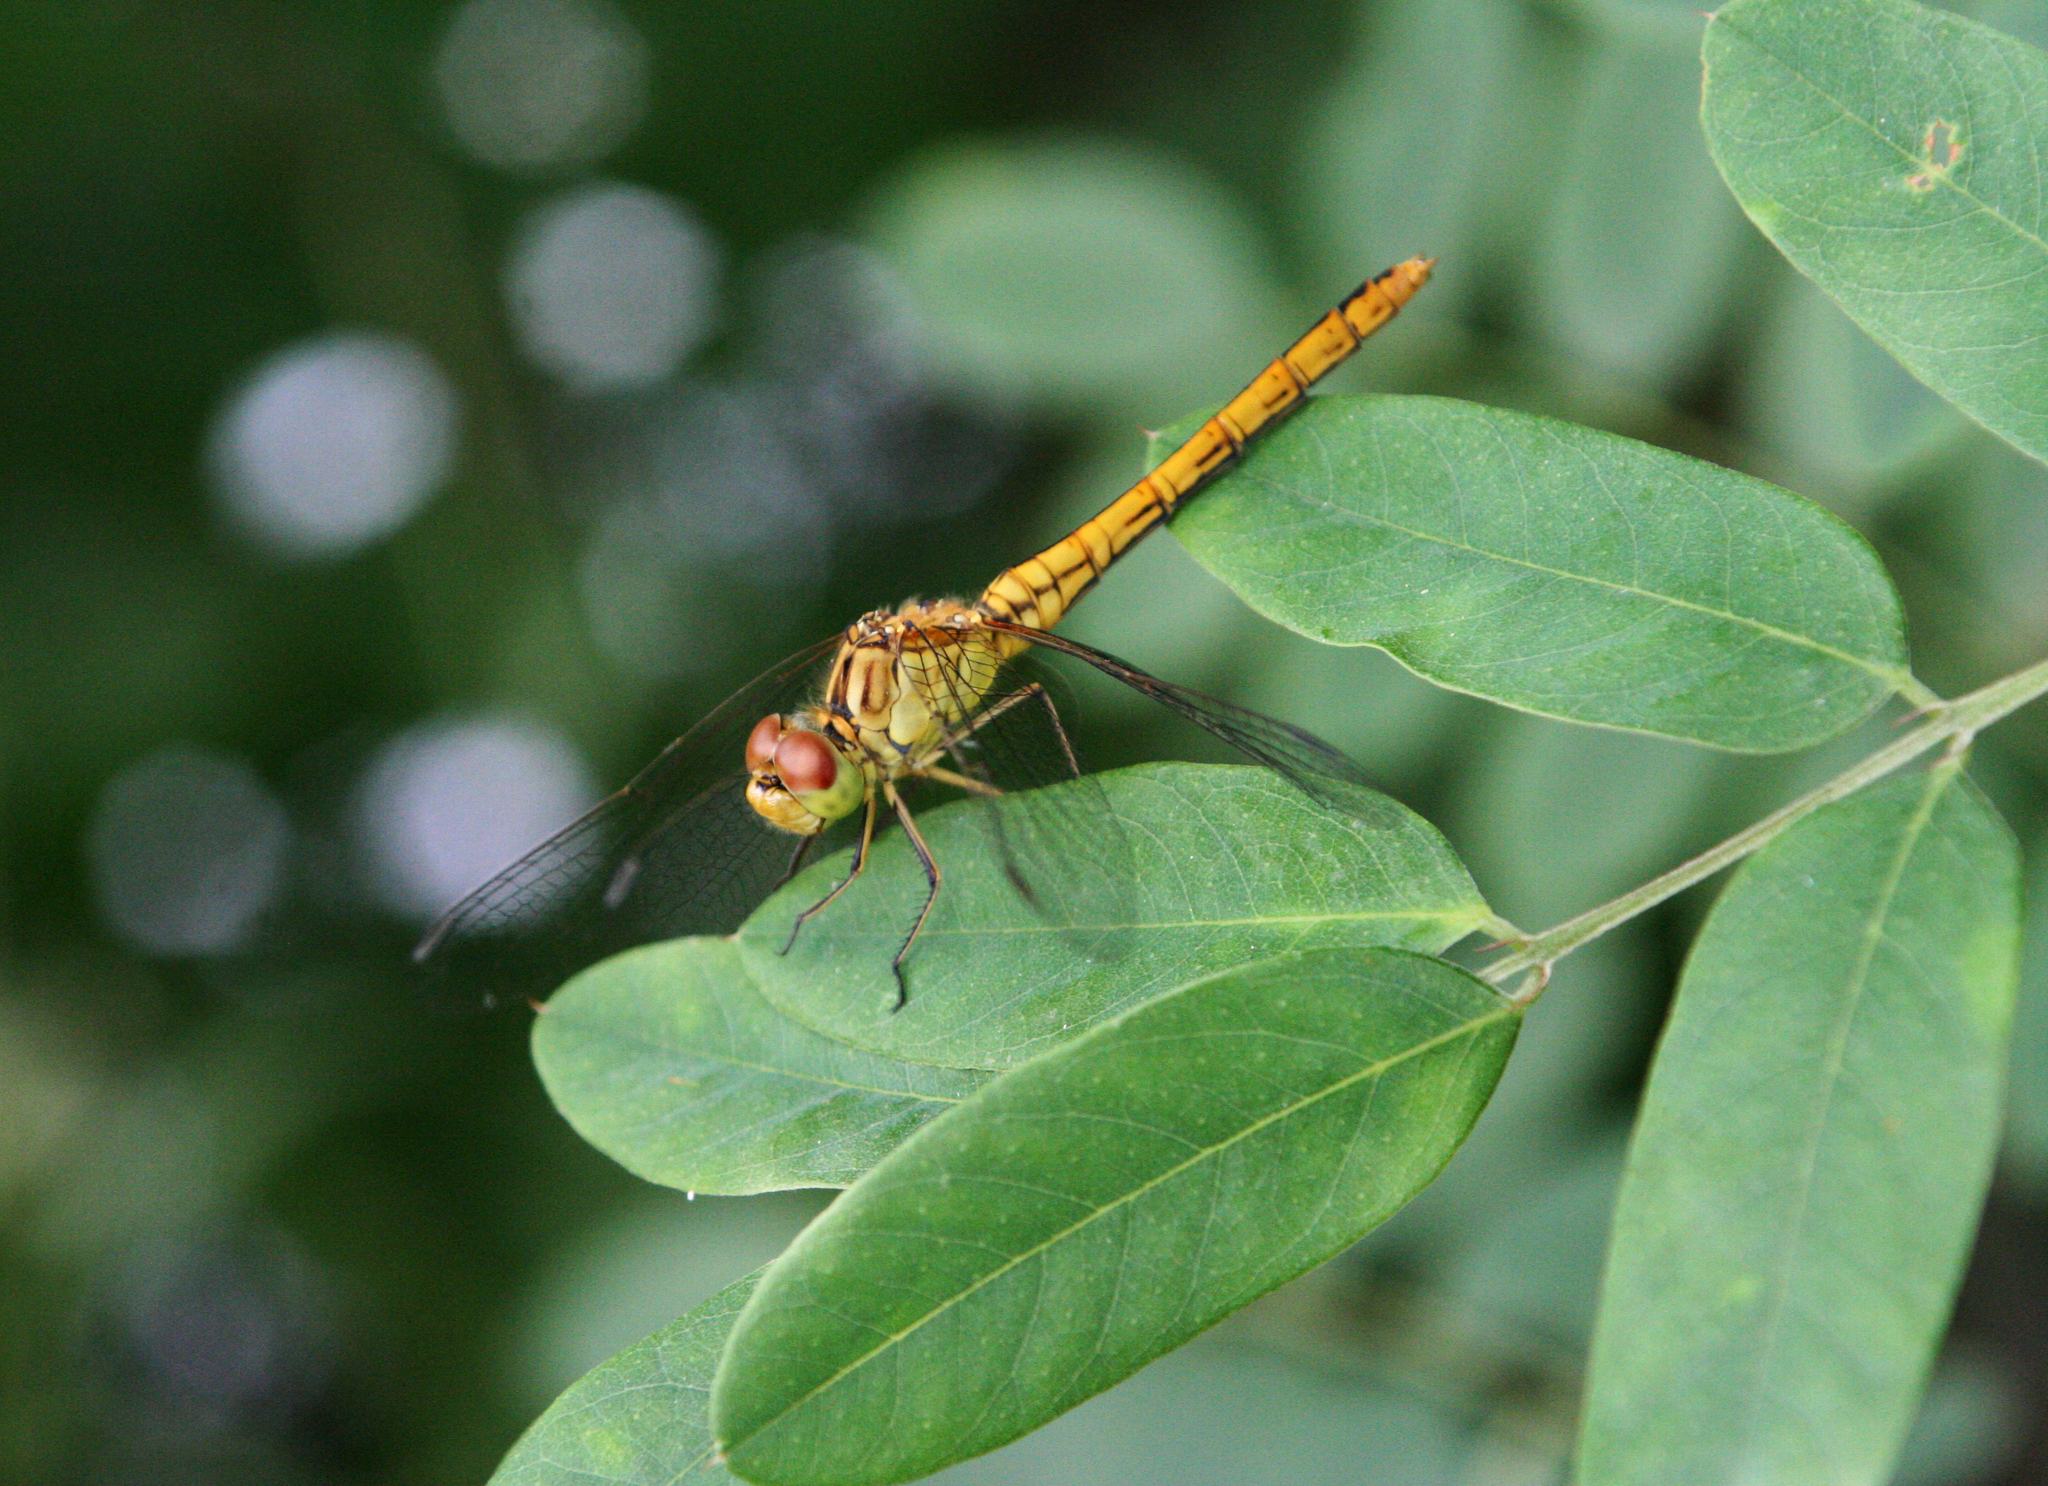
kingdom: Animalia
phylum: Arthropoda
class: Insecta
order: Odonata
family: Libellulidae
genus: Sympetrum
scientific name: Sympetrum meridionale
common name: Southern darter
